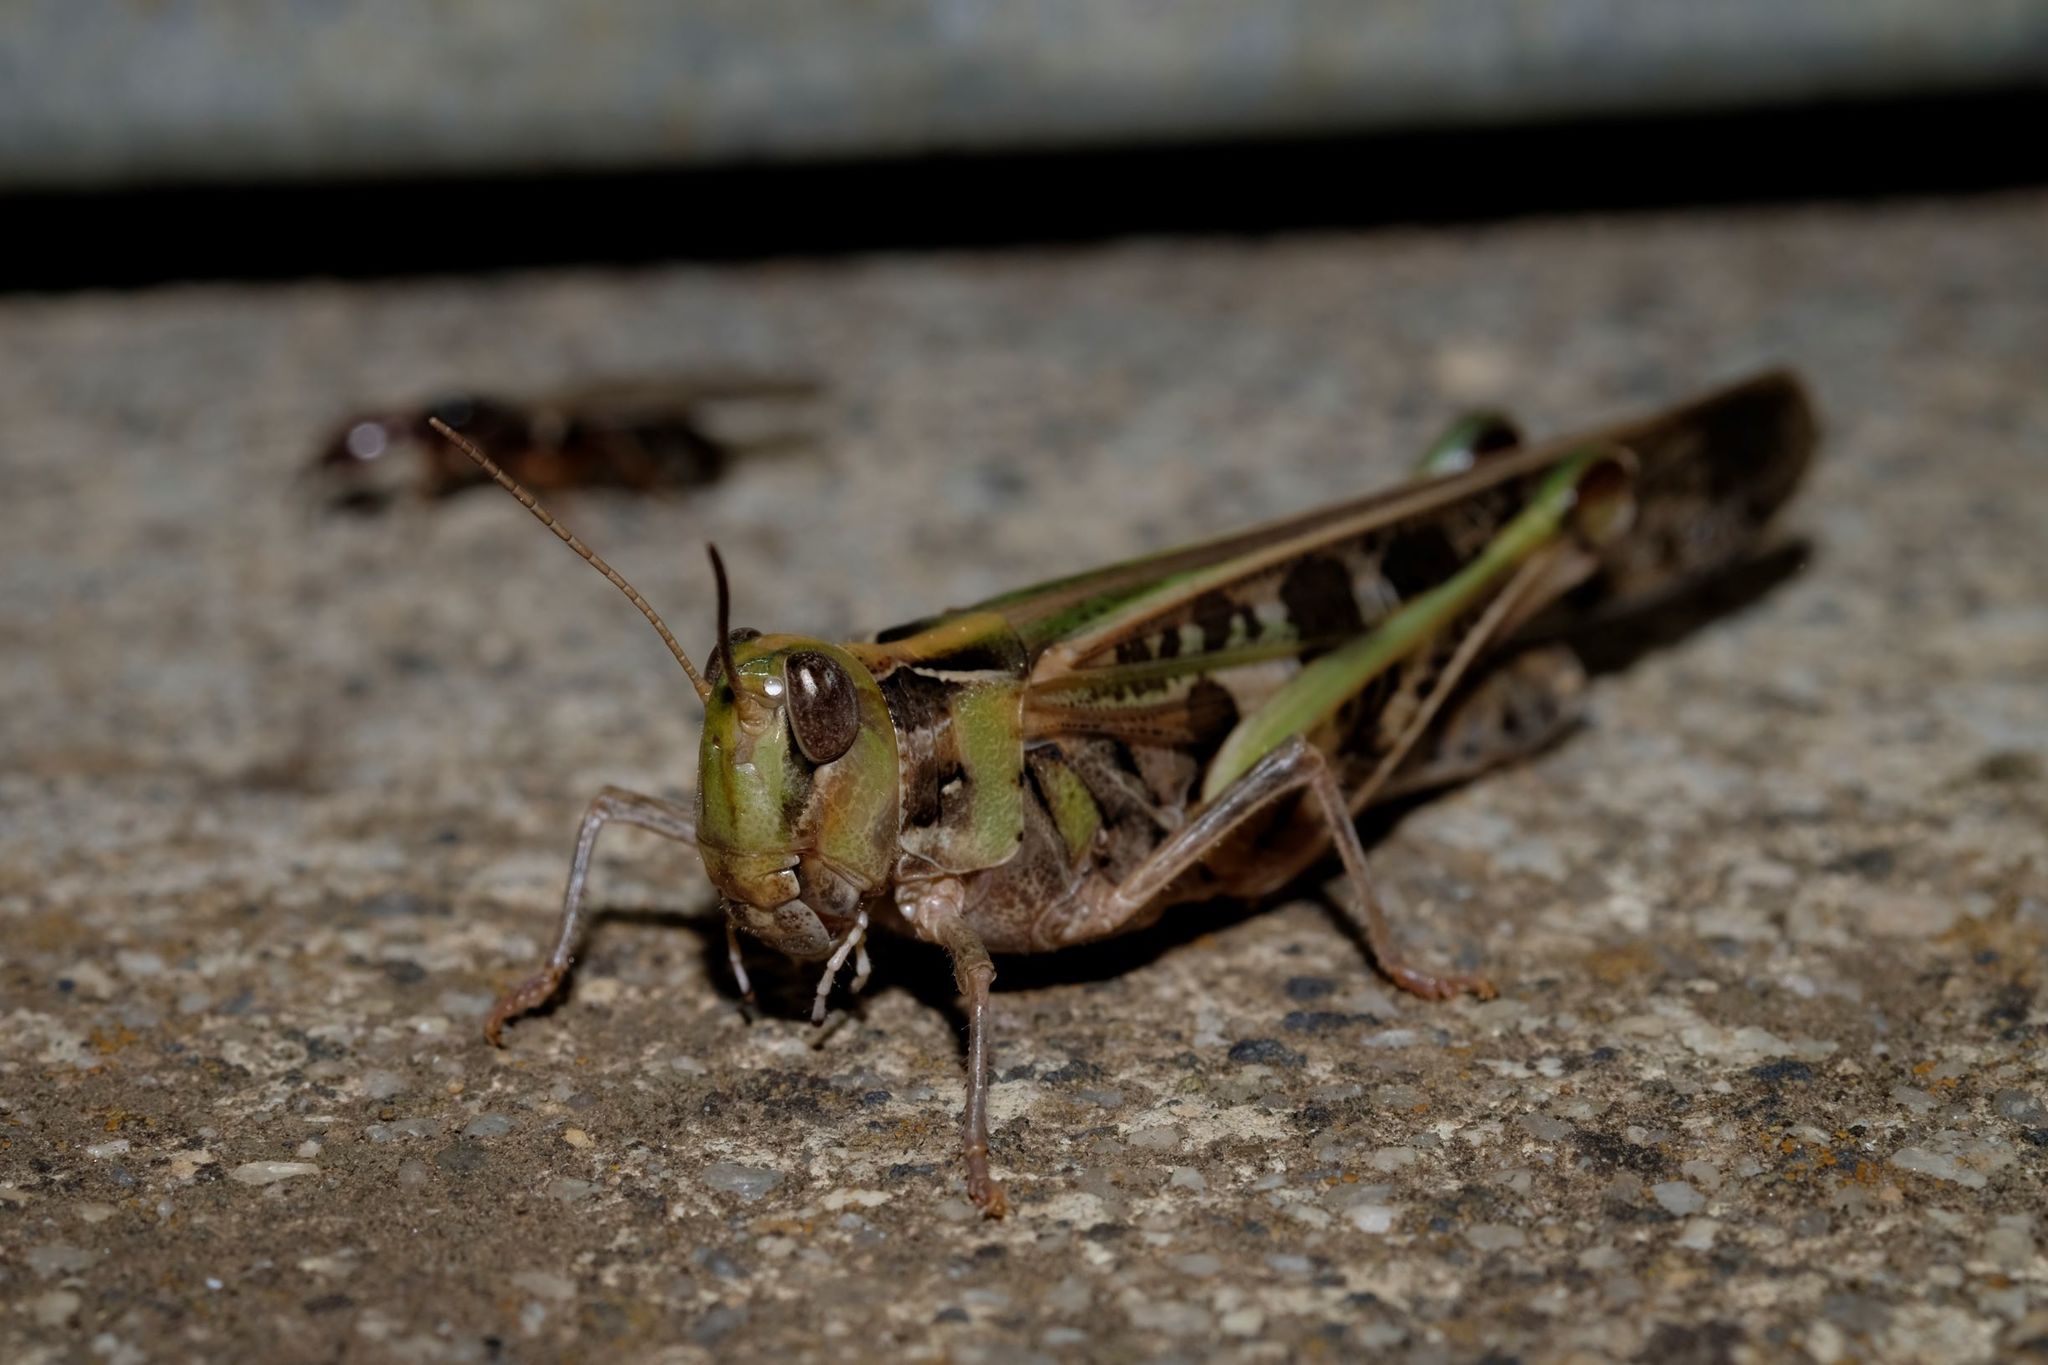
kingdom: Animalia
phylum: Arthropoda
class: Insecta
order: Orthoptera
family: Acrididae
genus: Chortoicetes
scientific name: Chortoicetes terminifera
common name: Australian plague locust
